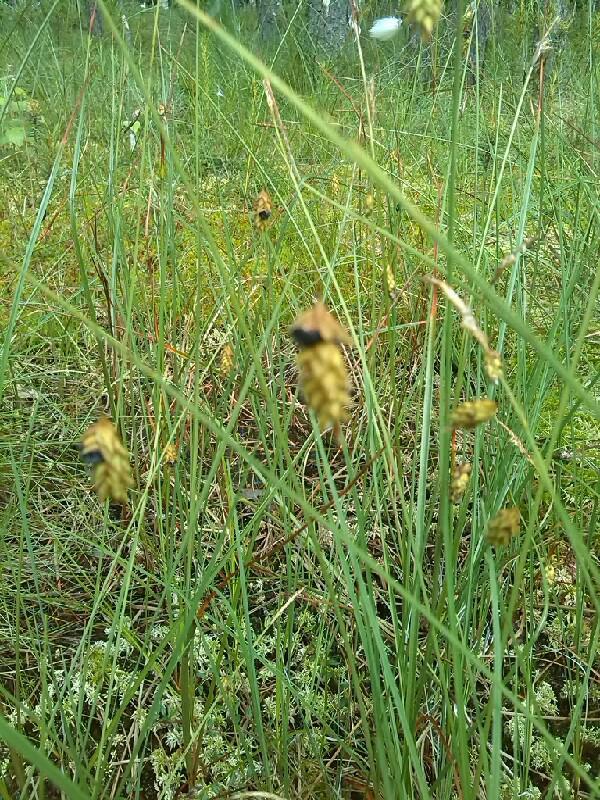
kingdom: Plantae
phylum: Tracheophyta
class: Liliopsida
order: Poales
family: Cyperaceae
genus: Carex
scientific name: Carex limosa
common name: Bog sedge
